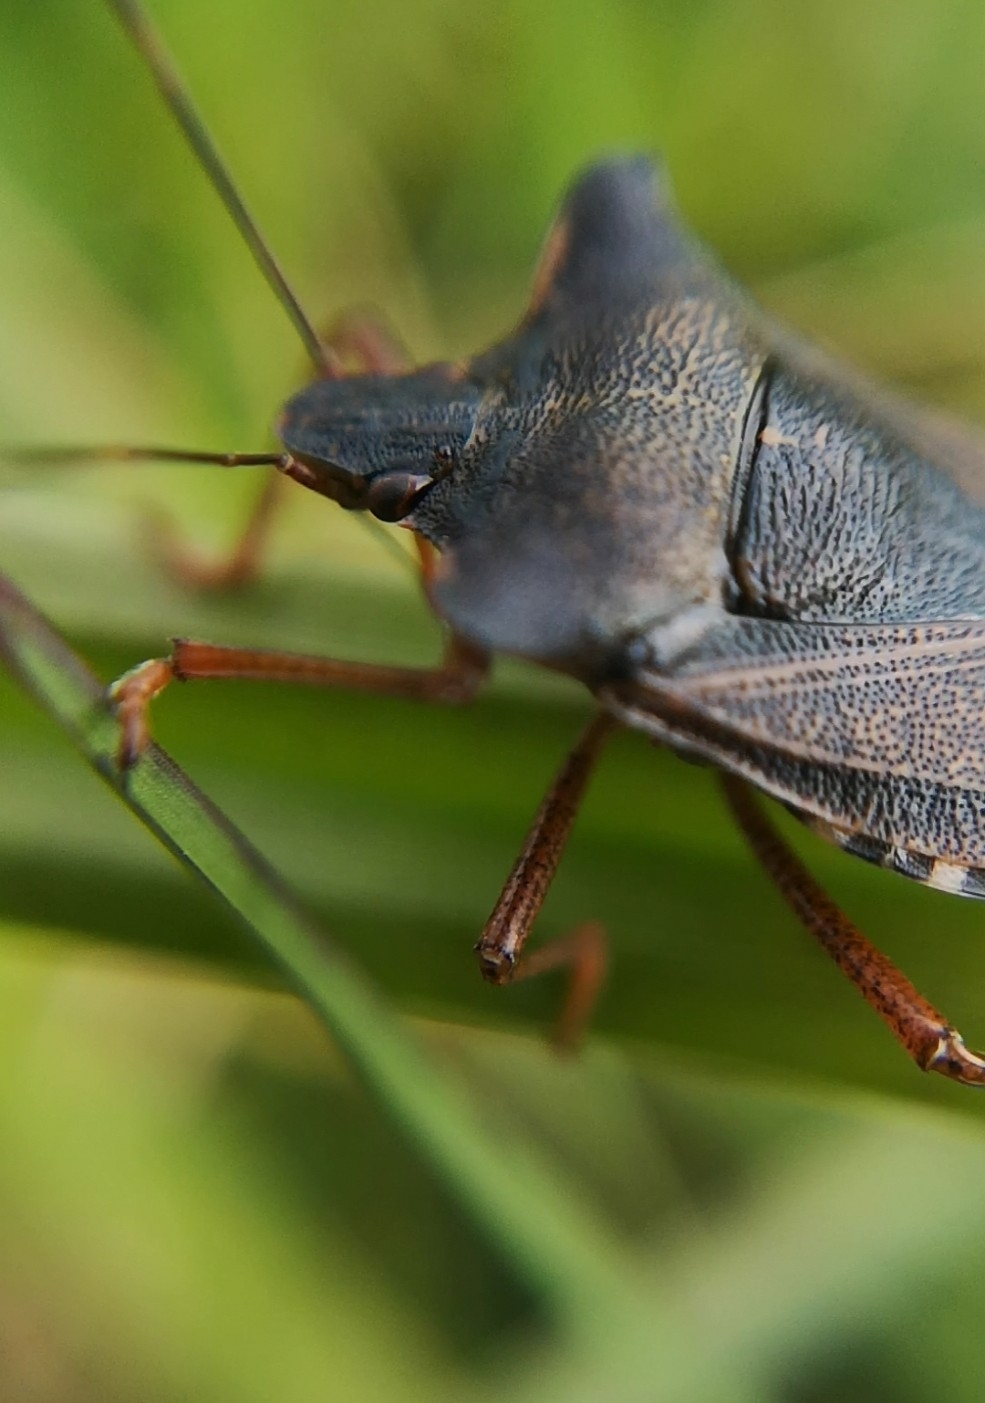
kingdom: Animalia
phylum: Arthropoda
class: Insecta
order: Hemiptera
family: Pentatomidae
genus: Pentatoma
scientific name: Pentatoma rufipes
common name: Forest bug
